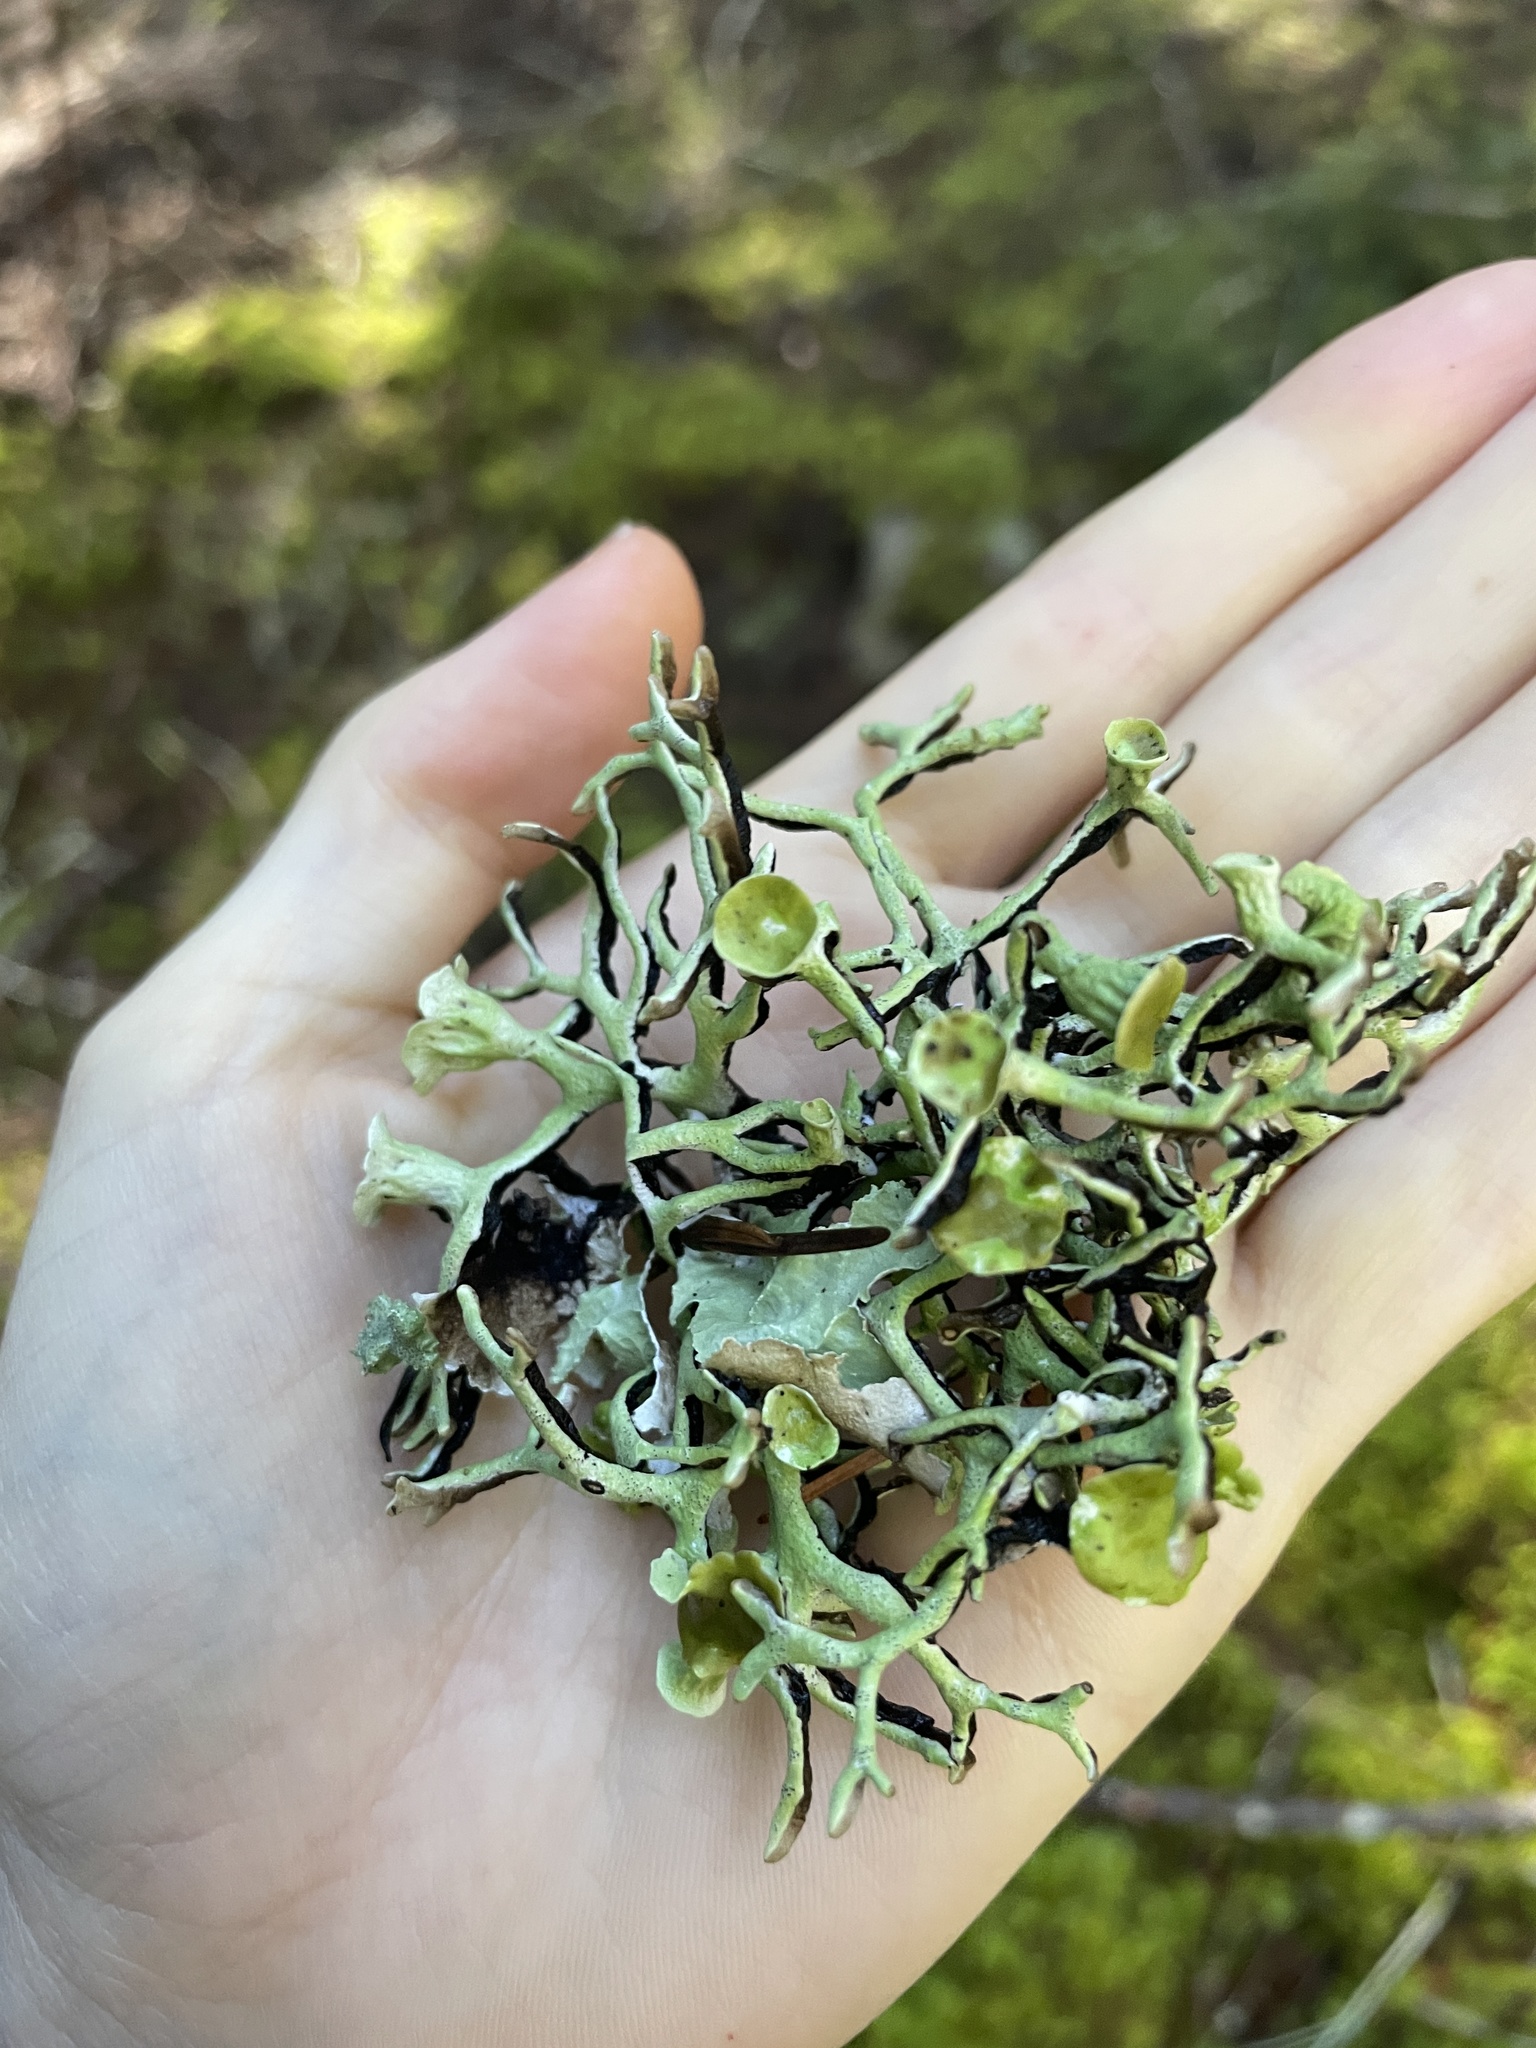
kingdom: Fungi
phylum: Ascomycota
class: Lecanoromycetes
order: Lecanorales
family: Parmeliaceae
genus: Hypogymnia
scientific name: Hypogymnia imshaugii
